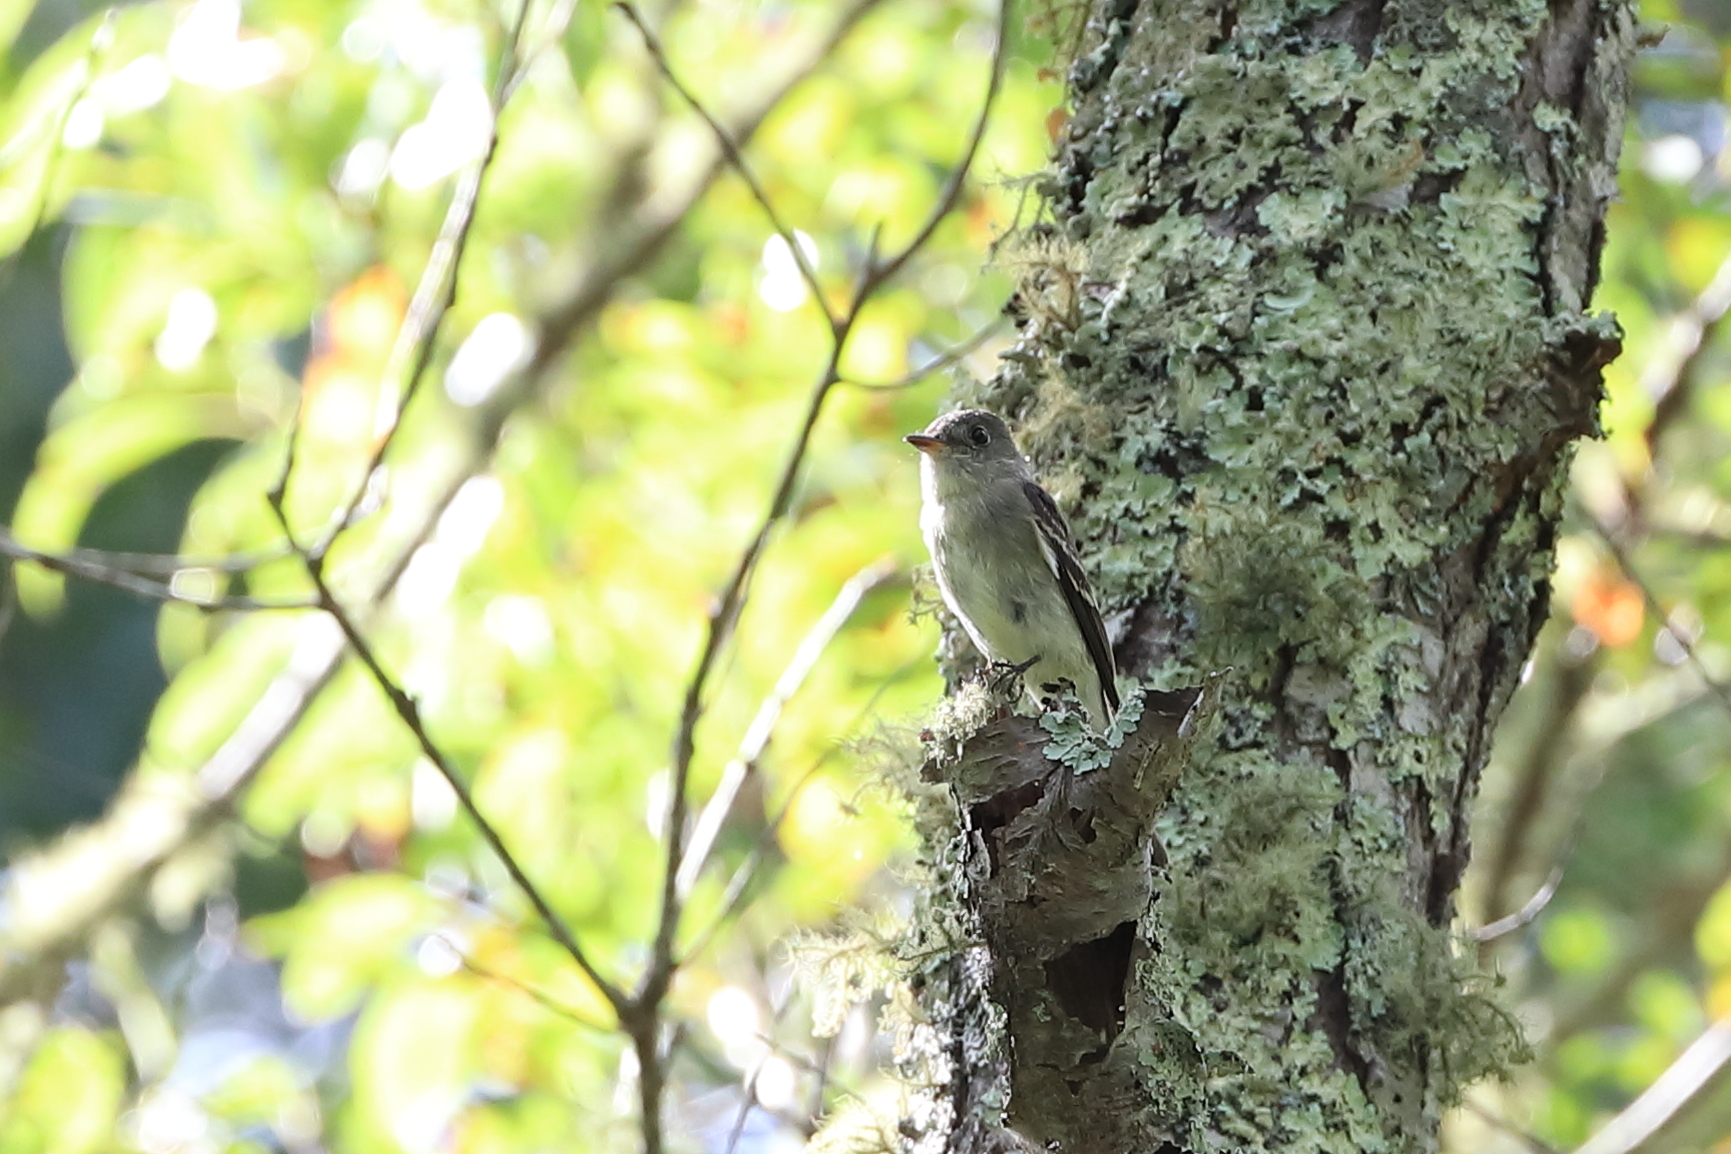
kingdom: Animalia
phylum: Chordata
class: Aves
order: Passeriformes
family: Tyrannidae
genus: Contopus
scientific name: Contopus virens
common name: Eastern wood-pewee
